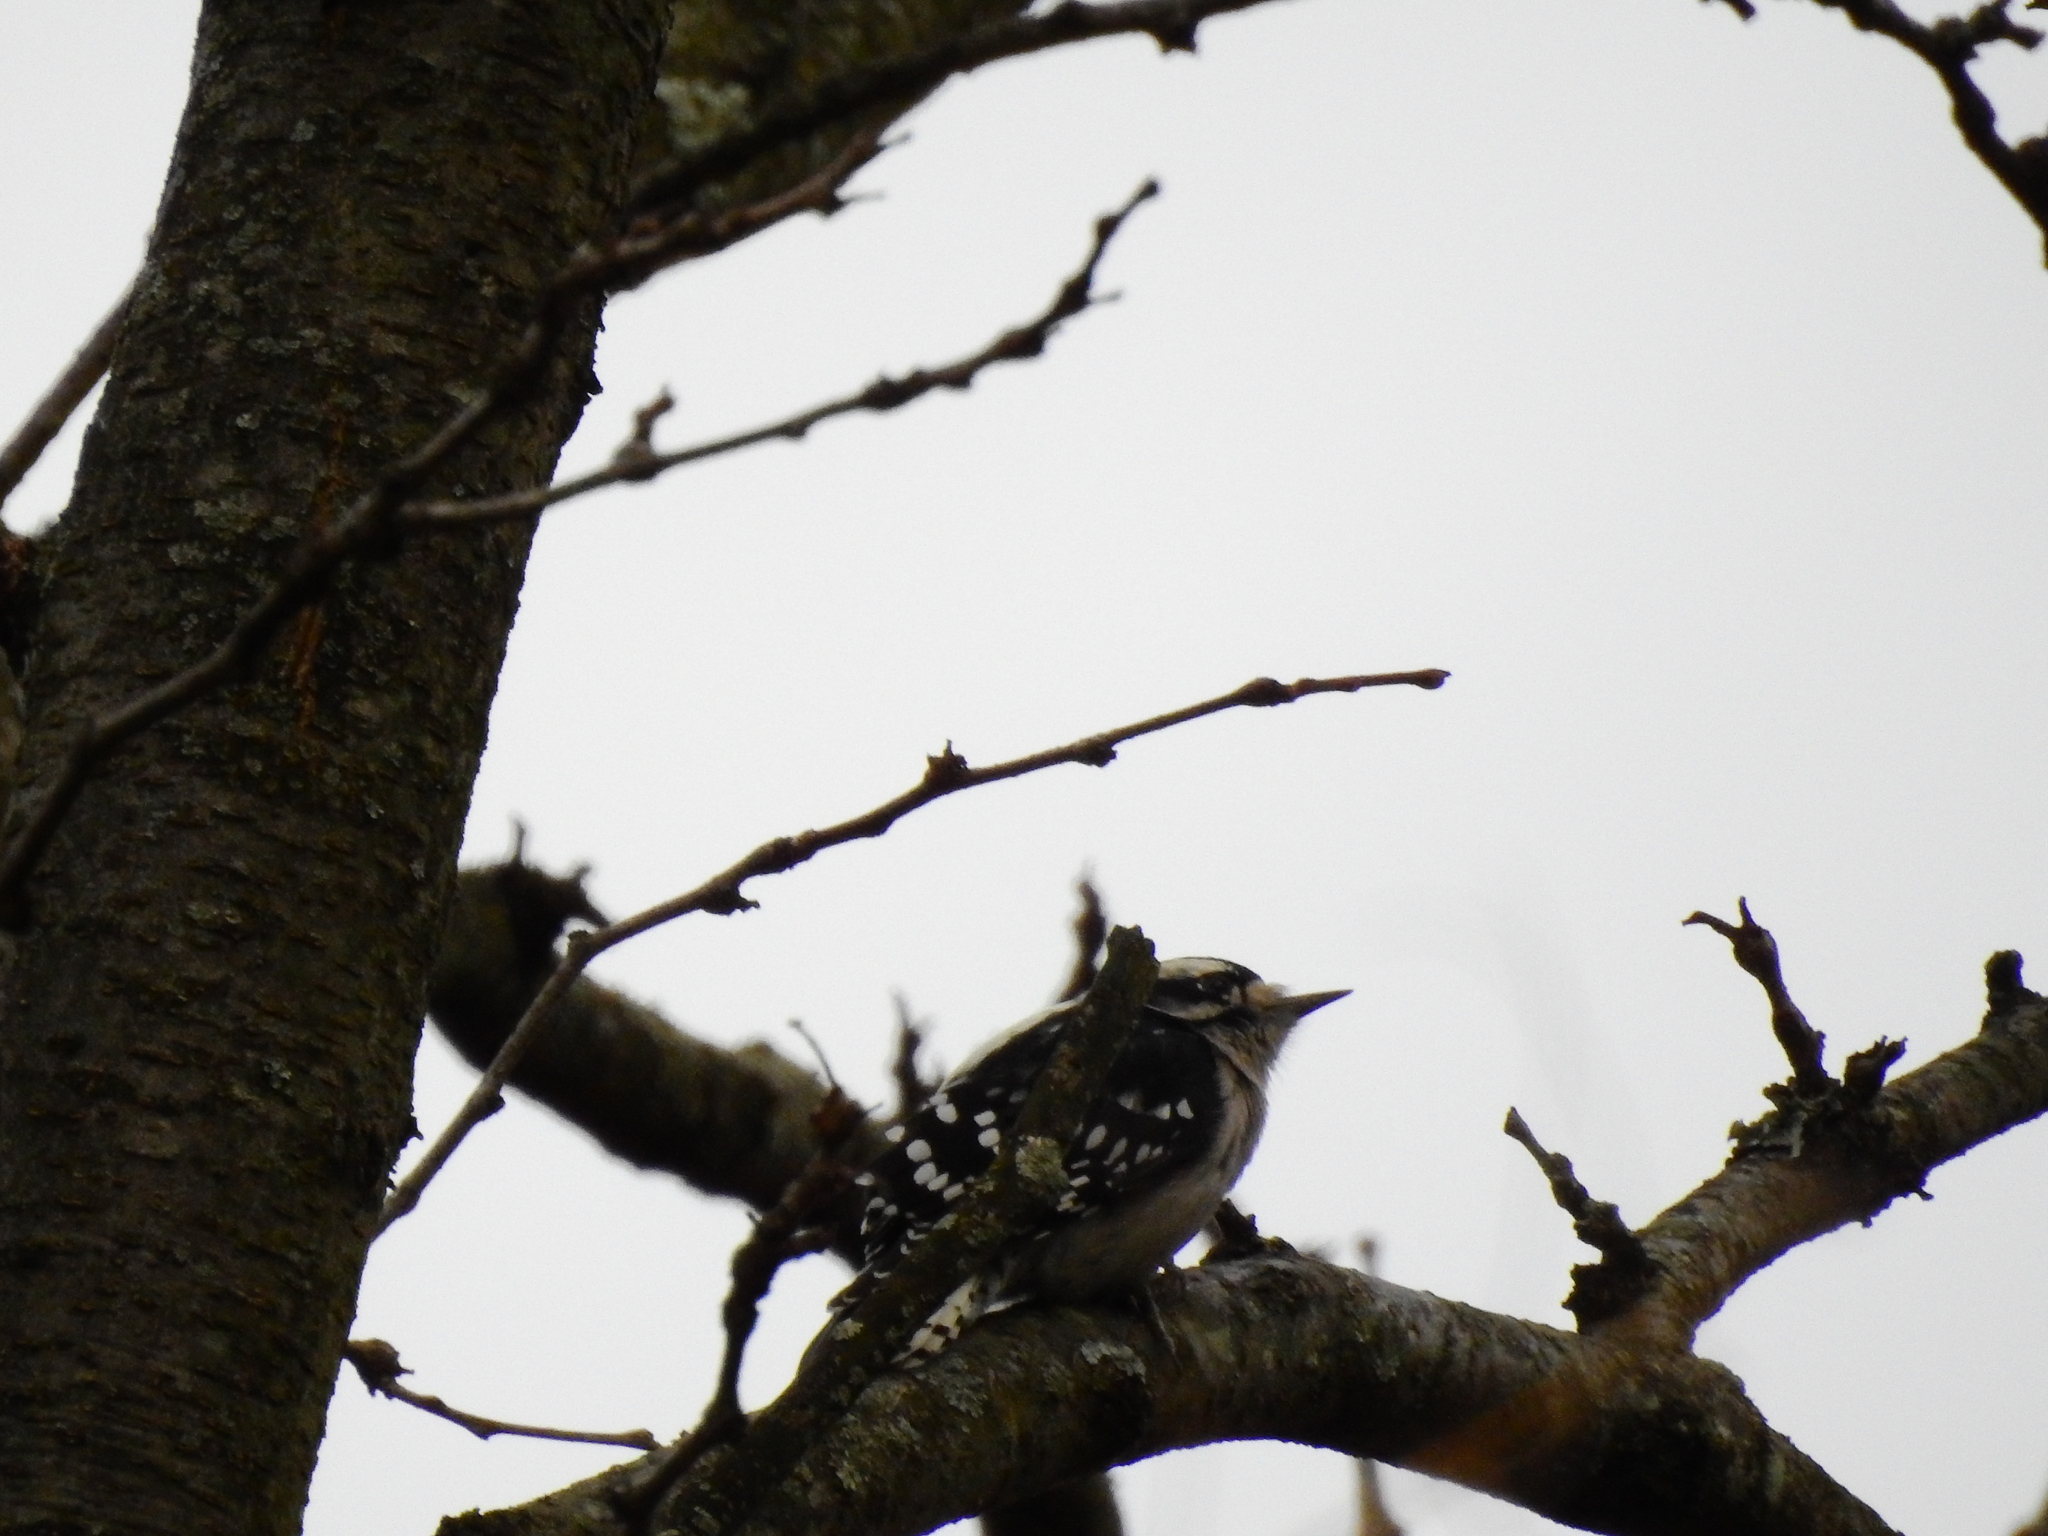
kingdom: Animalia
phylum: Chordata
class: Aves
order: Piciformes
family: Picidae
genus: Dryobates
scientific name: Dryobates pubescens
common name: Downy woodpecker
